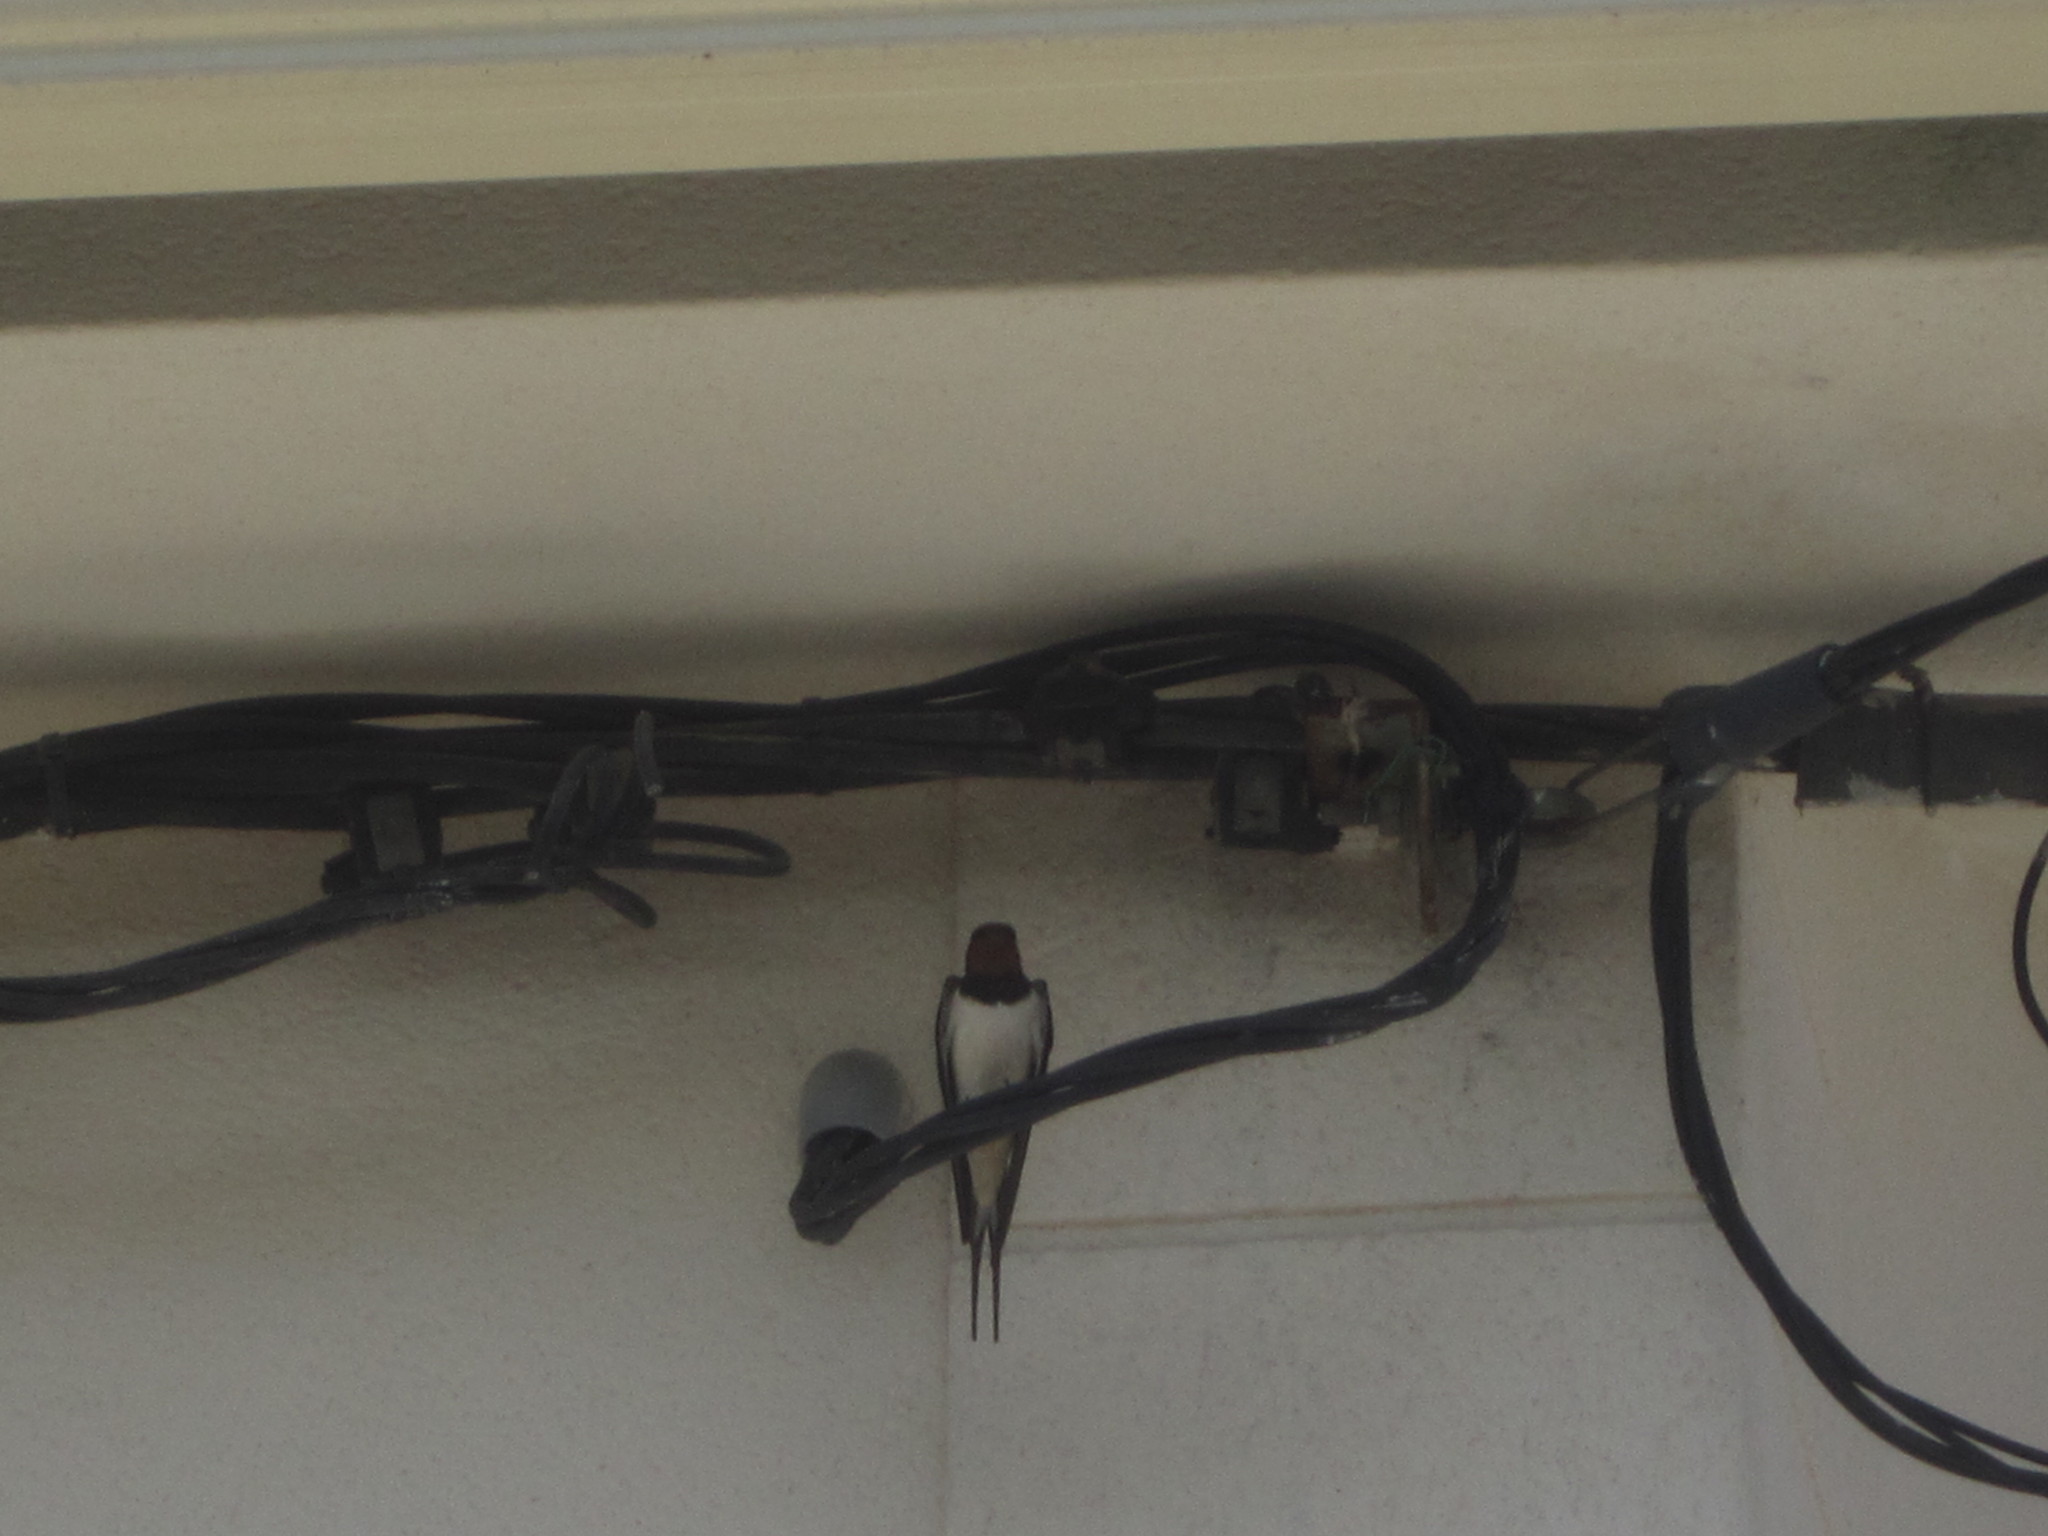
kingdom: Animalia
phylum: Chordata
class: Aves
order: Passeriformes
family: Hirundinidae
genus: Hirundo
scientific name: Hirundo rustica
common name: Barn swallow
